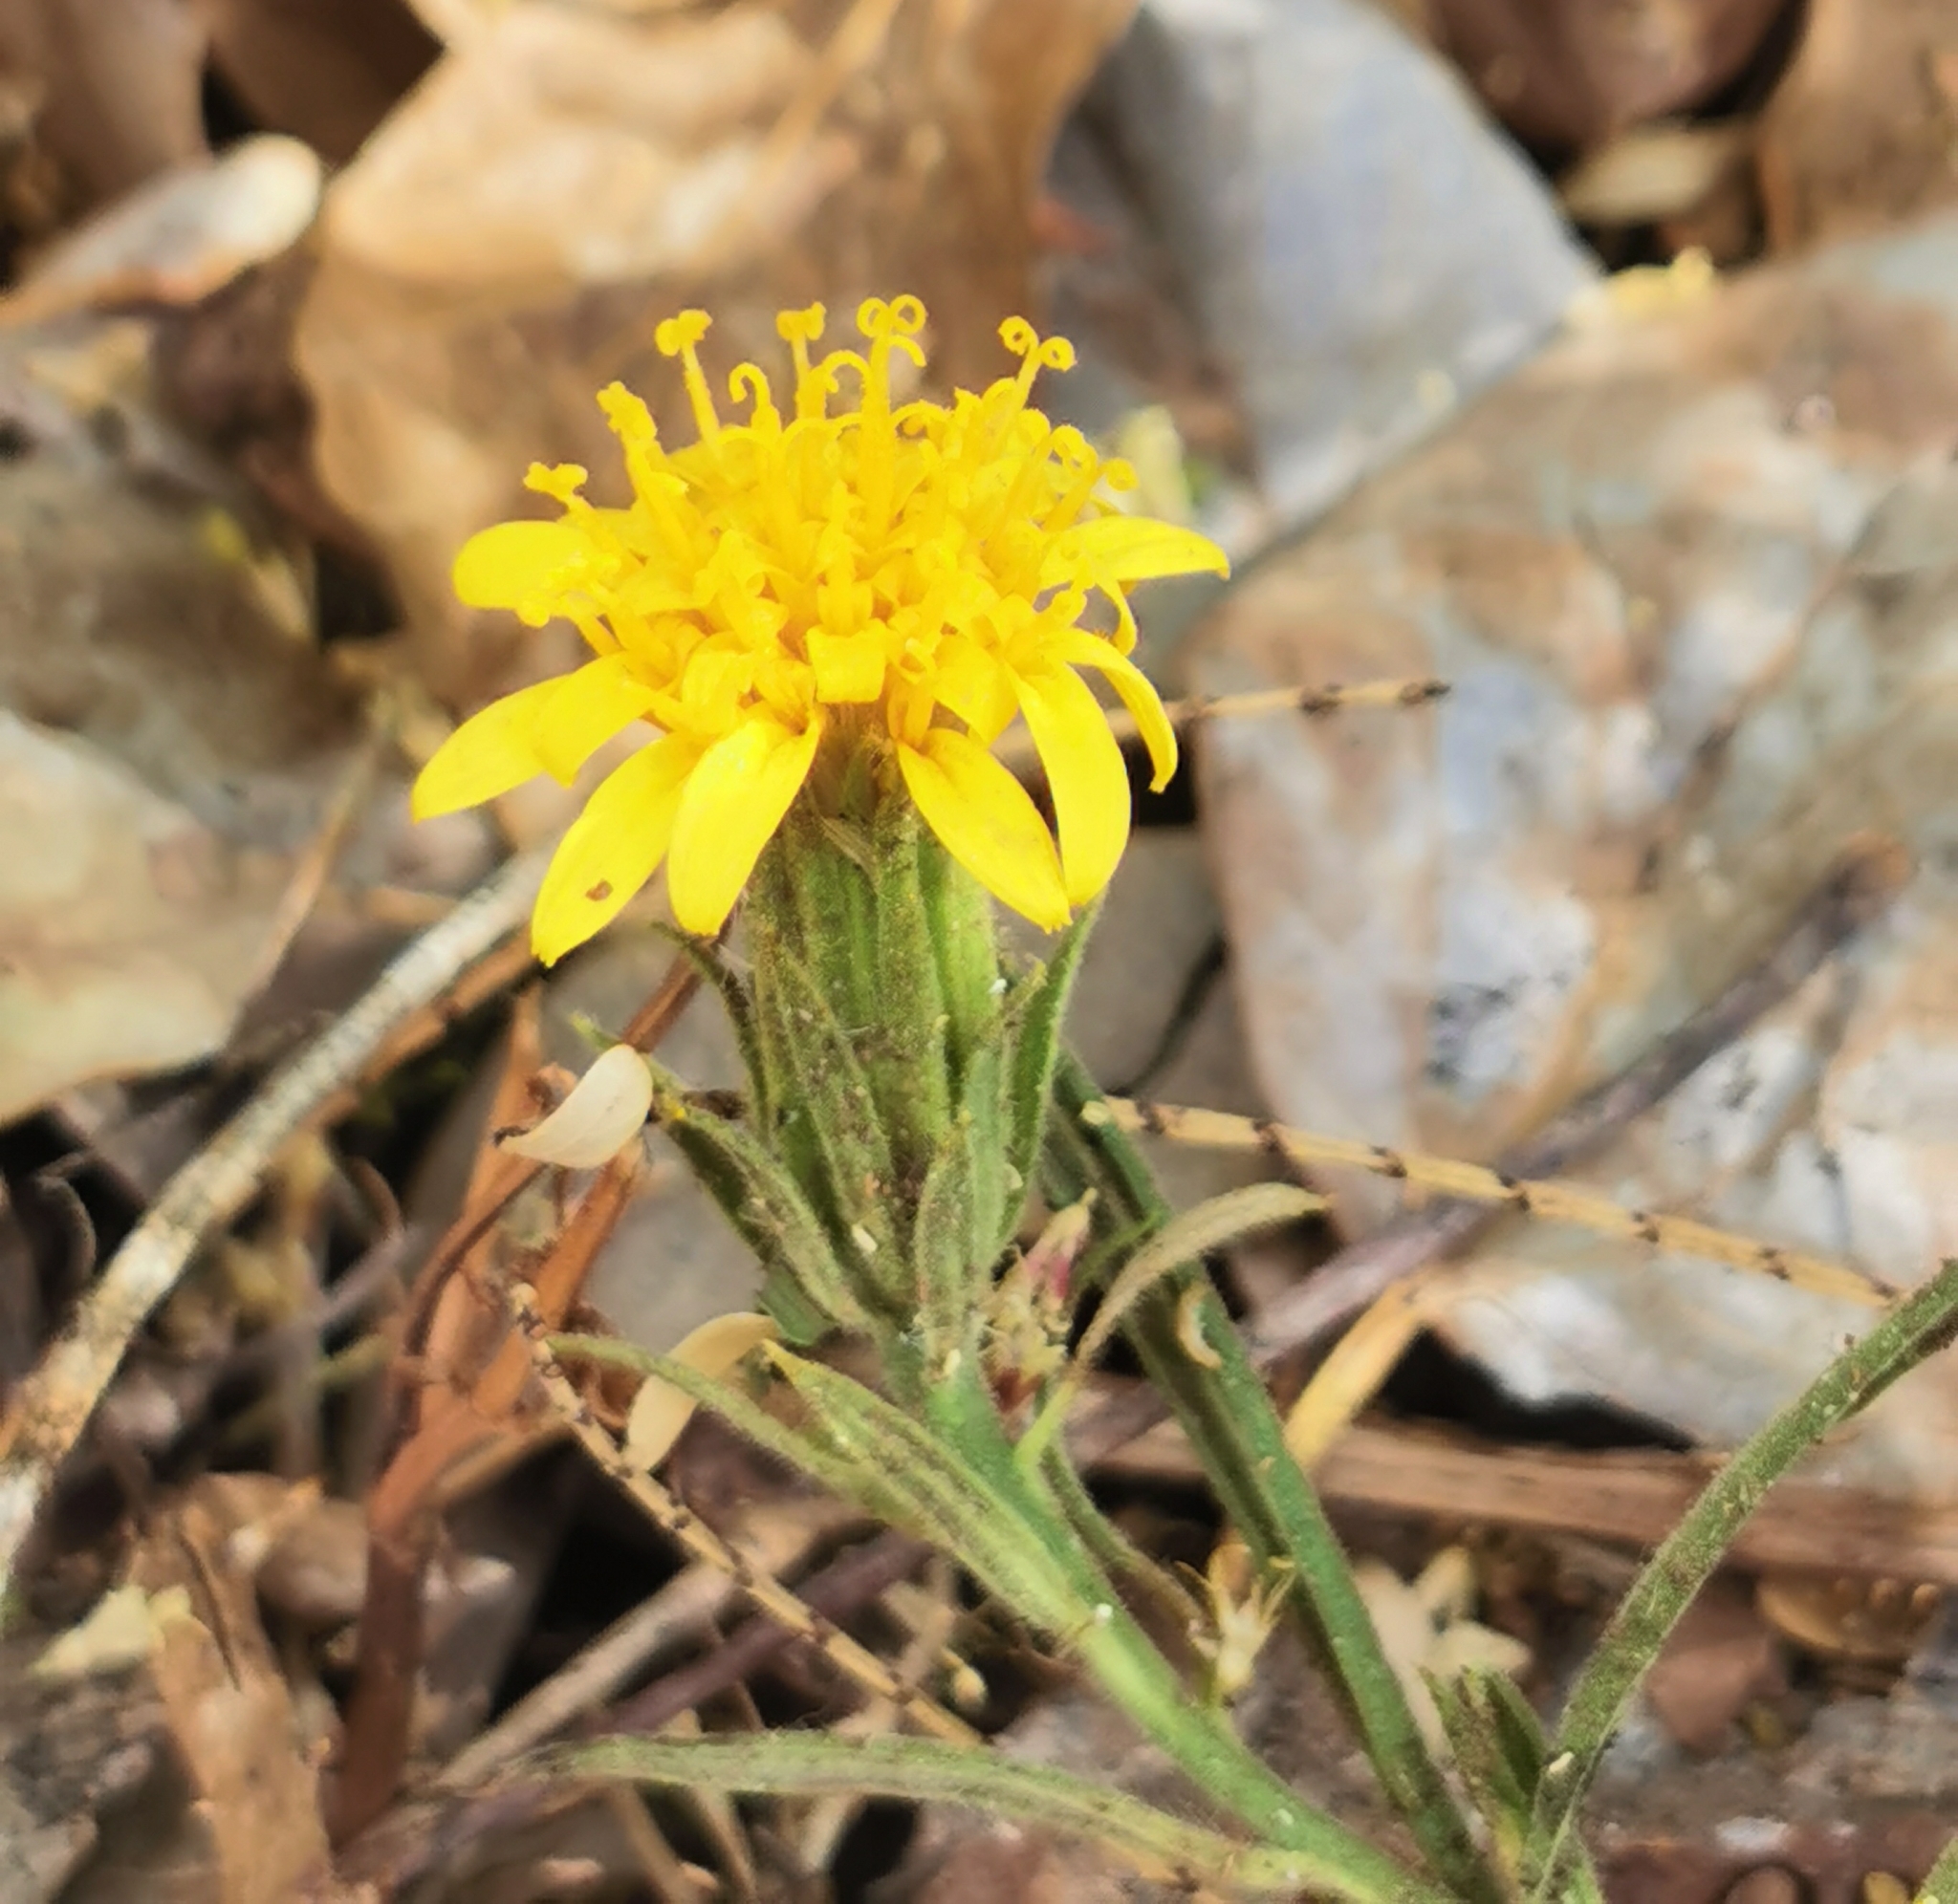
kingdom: Plantae
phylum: Tracheophyta
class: Magnoliopsida
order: Asterales
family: Asteraceae
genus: Trixis
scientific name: Trixis angustifolia
